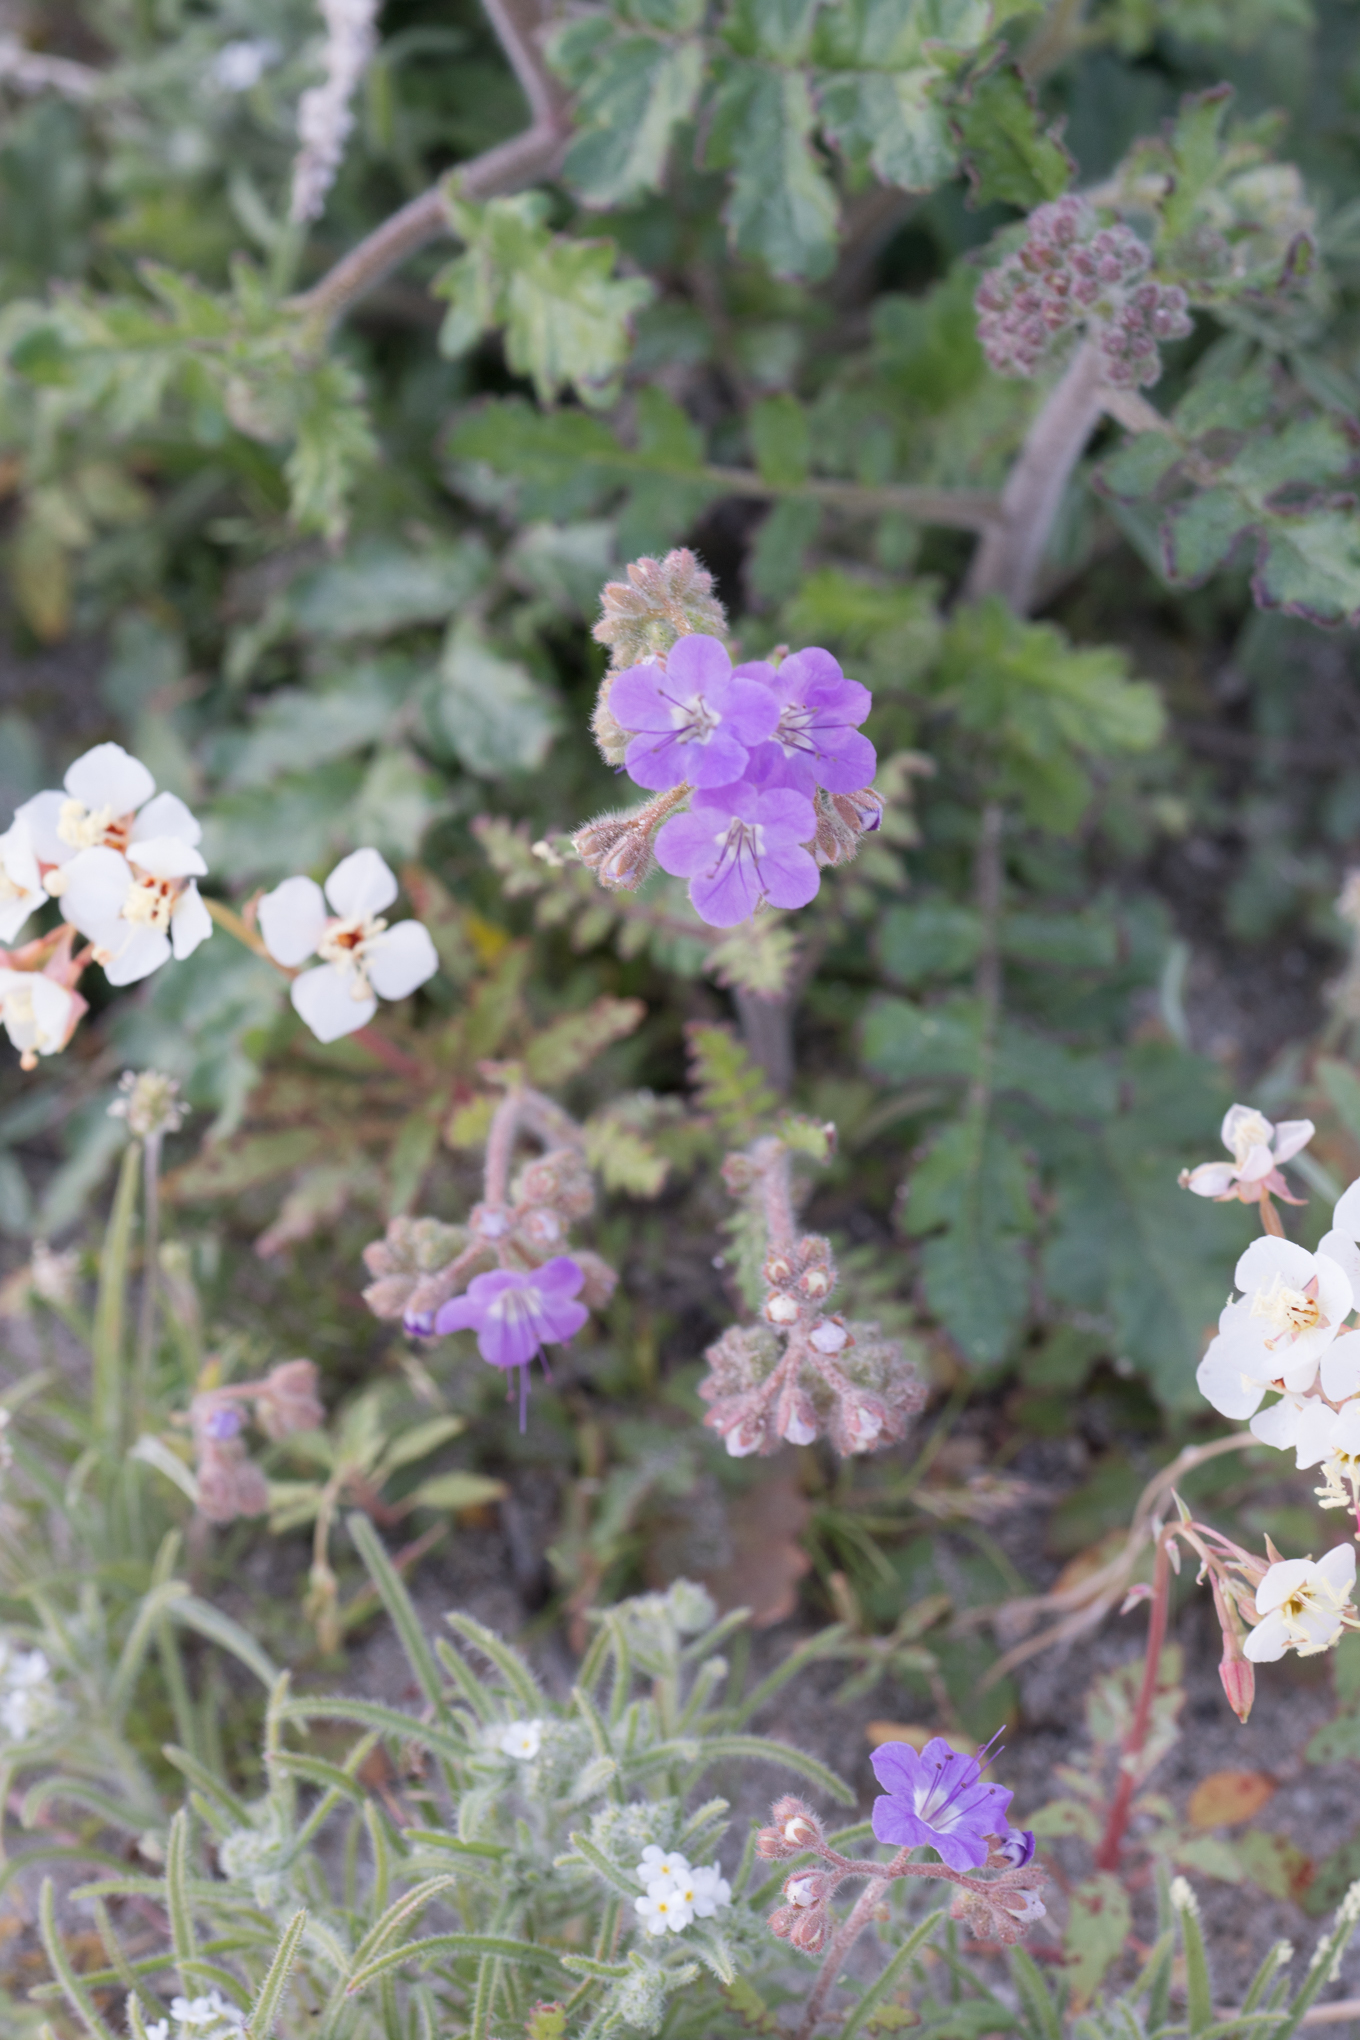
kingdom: Plantae
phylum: Tracheophyta
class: Magnoliopsida
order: Boraginales
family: Hydrophyllaceae
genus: Phacelia
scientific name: Phacelia crenulata
